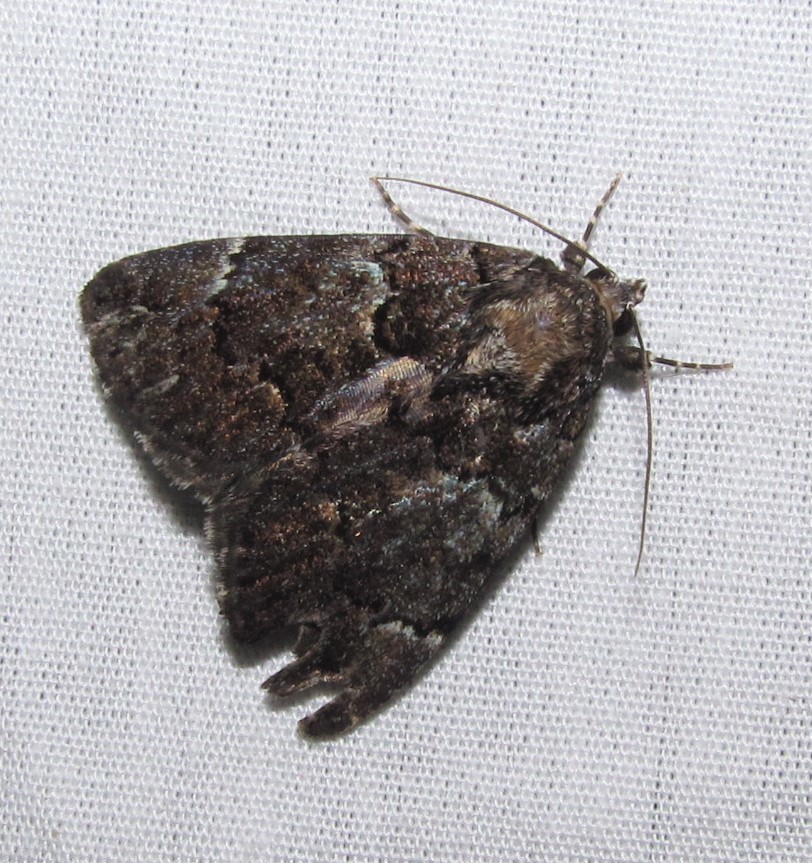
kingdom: Animalia
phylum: Arthropoda
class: Insecta
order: Lepidoptera
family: Erebidae
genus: Allotria
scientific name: Allotria elonympha
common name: False underwing
